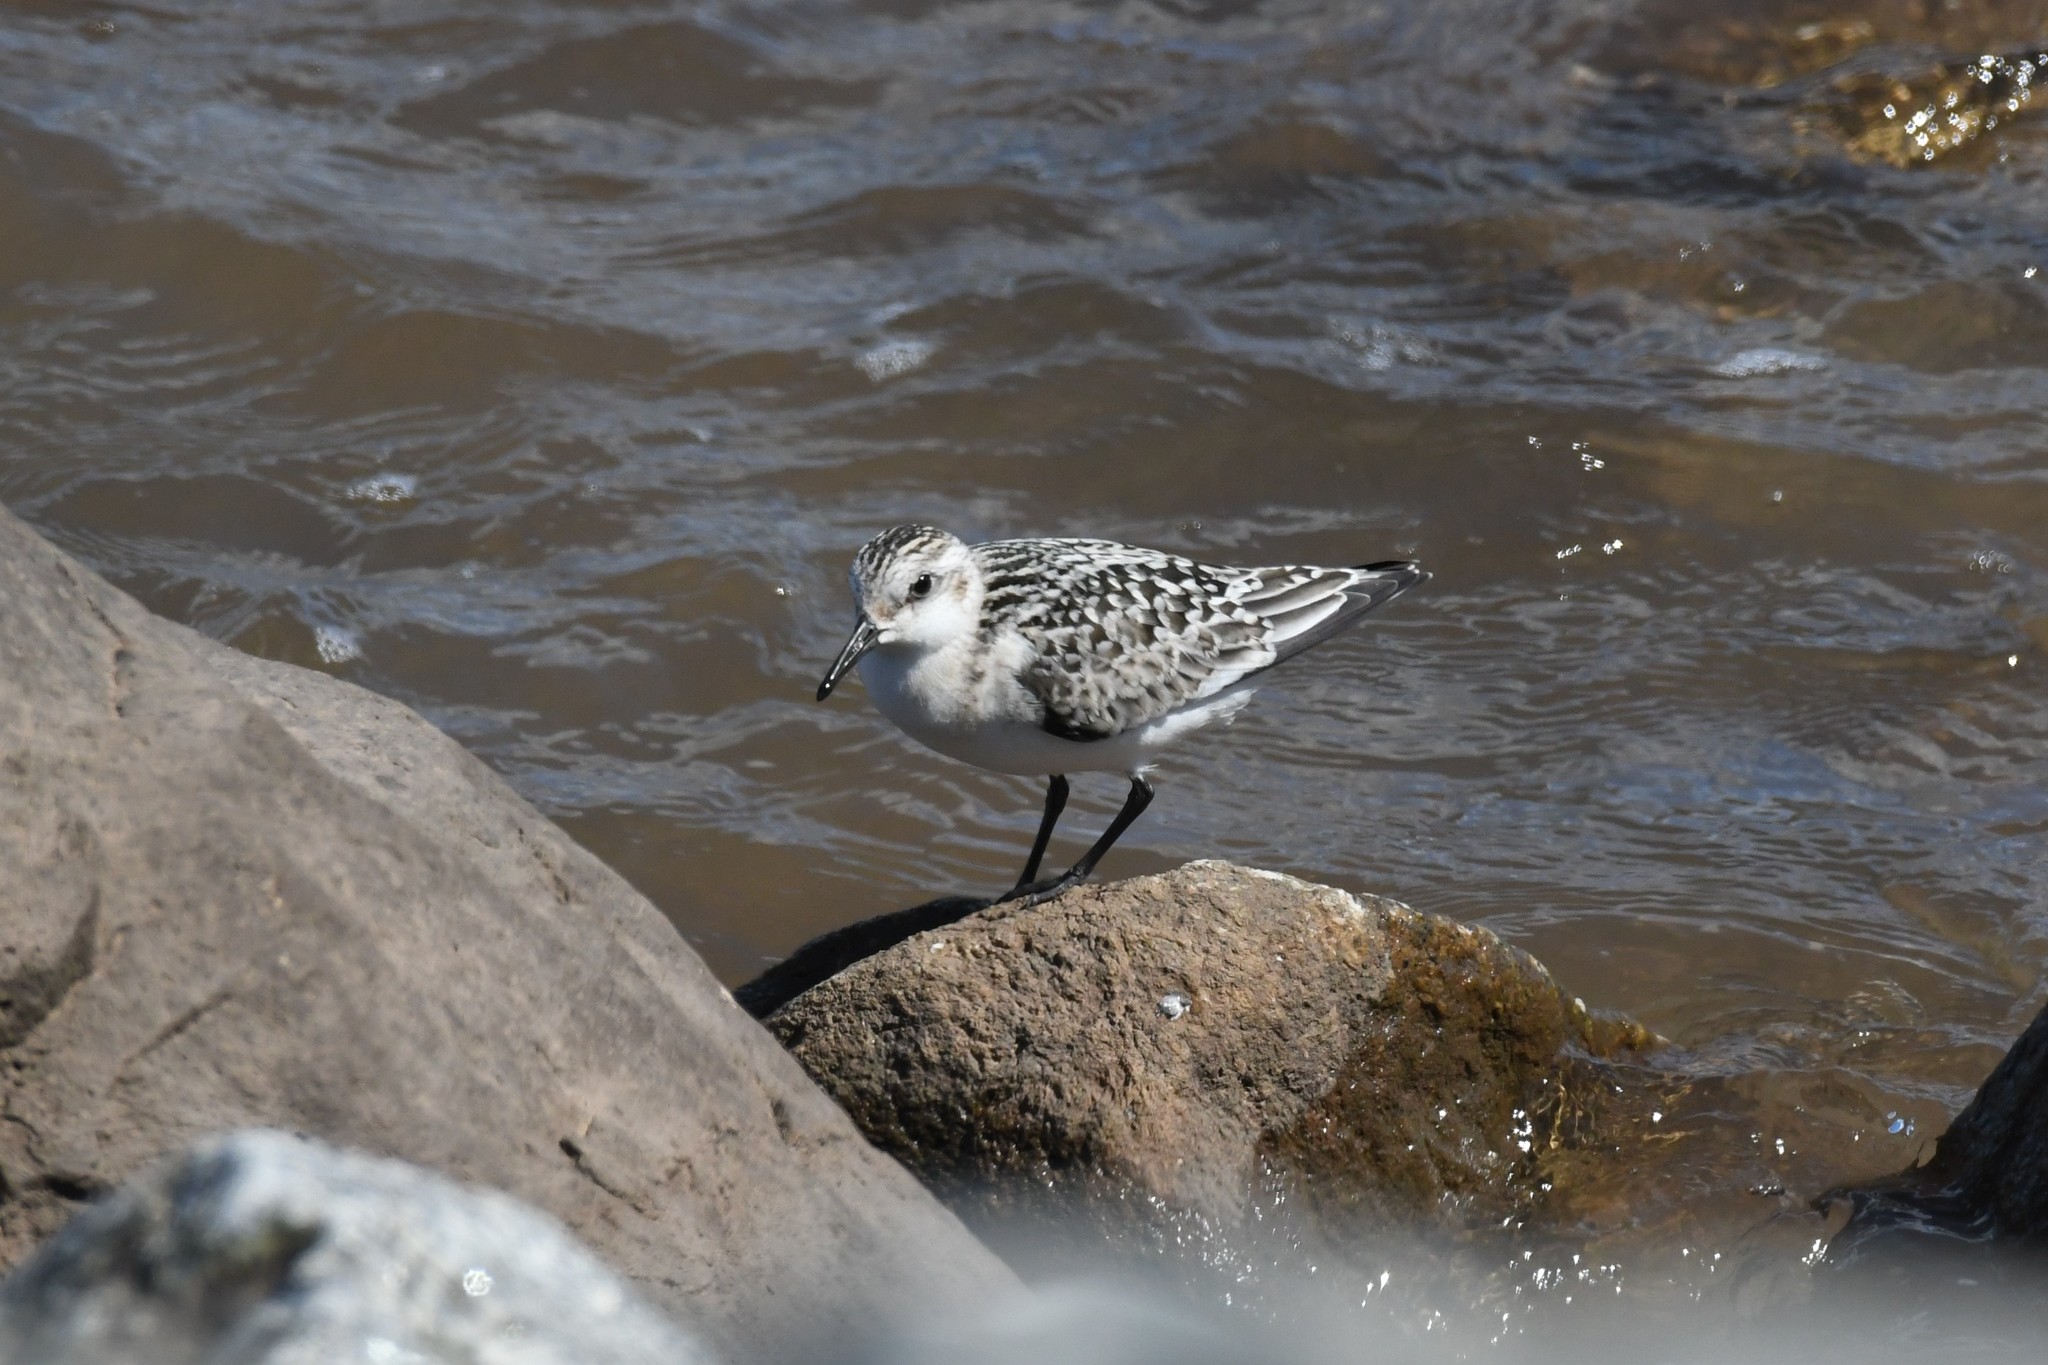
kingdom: Animalia
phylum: Chordata
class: Aves
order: Charadriiformes
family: Scolopacidae
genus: Calidris
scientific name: Calidris alba
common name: Sanderling
